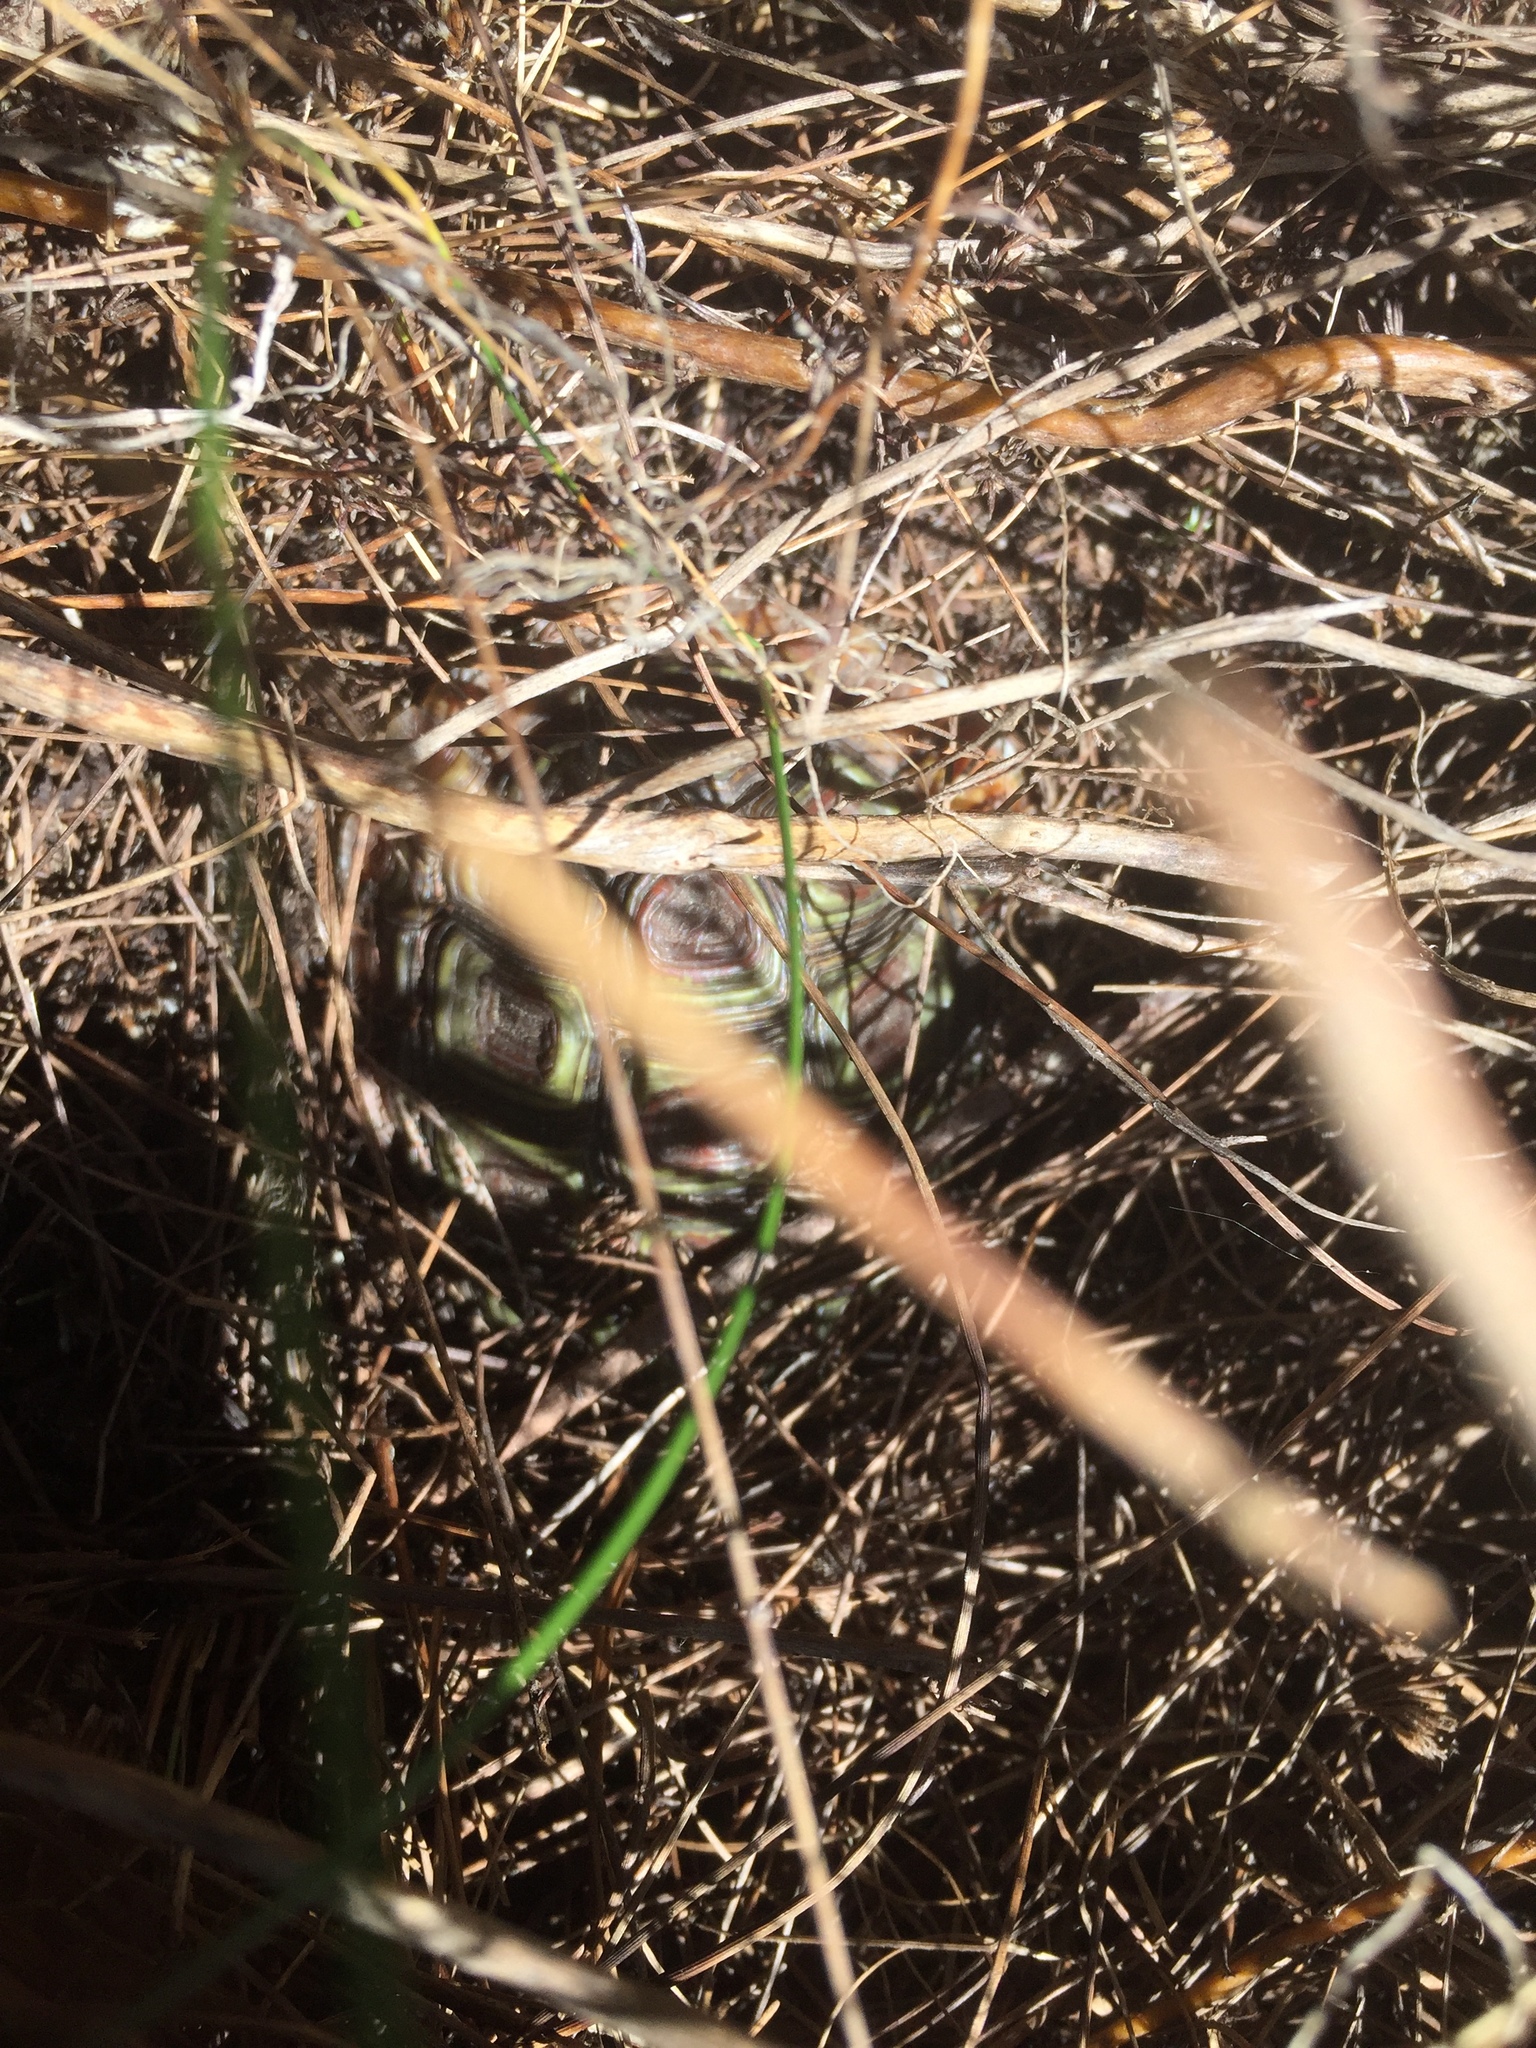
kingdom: Animalia
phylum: Chordata
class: Testudines
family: Testudinidae
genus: Homopus
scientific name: Homopus areolatus
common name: Parrot-beaked tortoise
